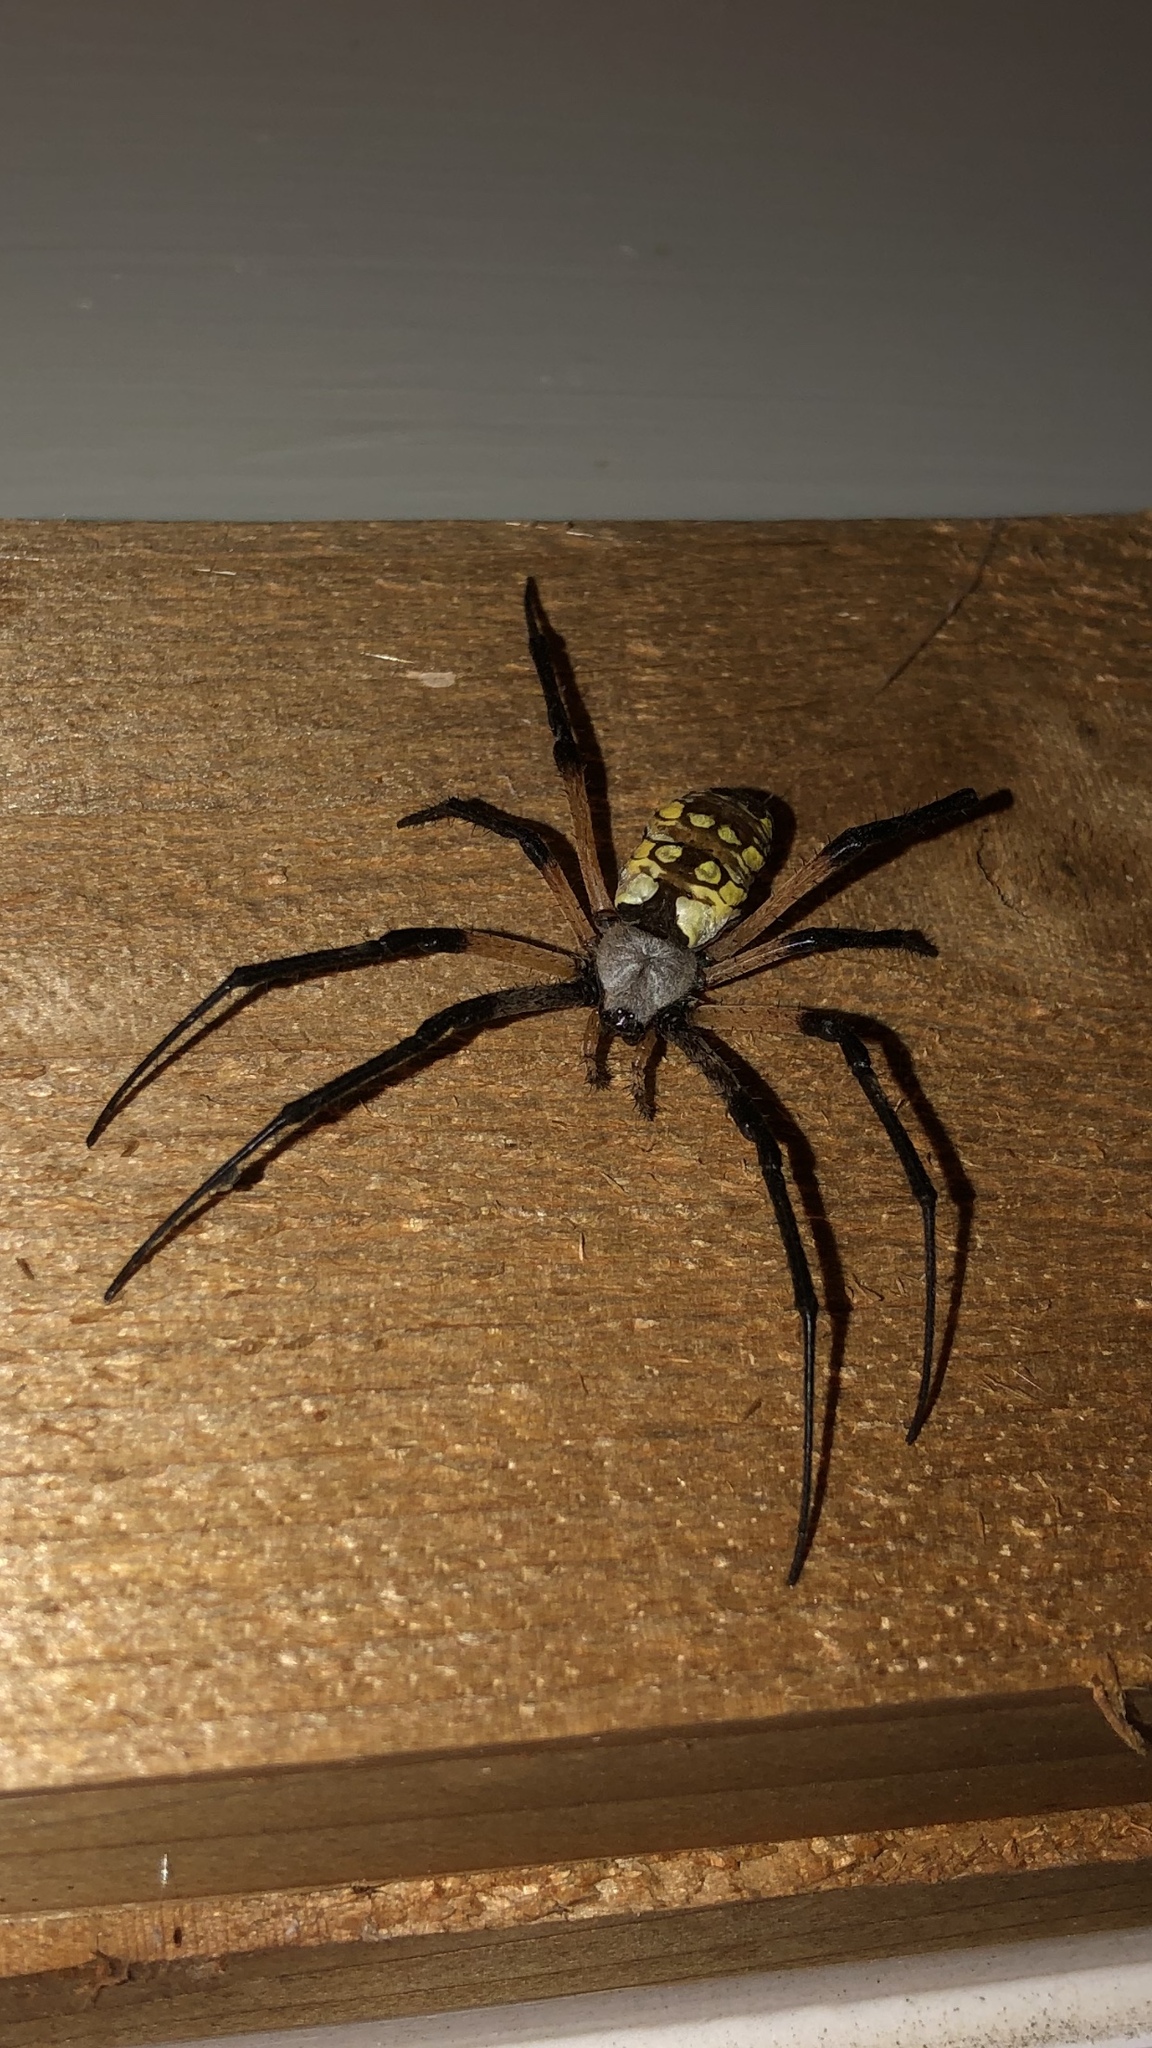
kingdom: Animalia
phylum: Arthropoda
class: Arachnida
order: Araneae
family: Araneidae
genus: Argiope
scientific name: Argiope aurantia
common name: Orb weavers
